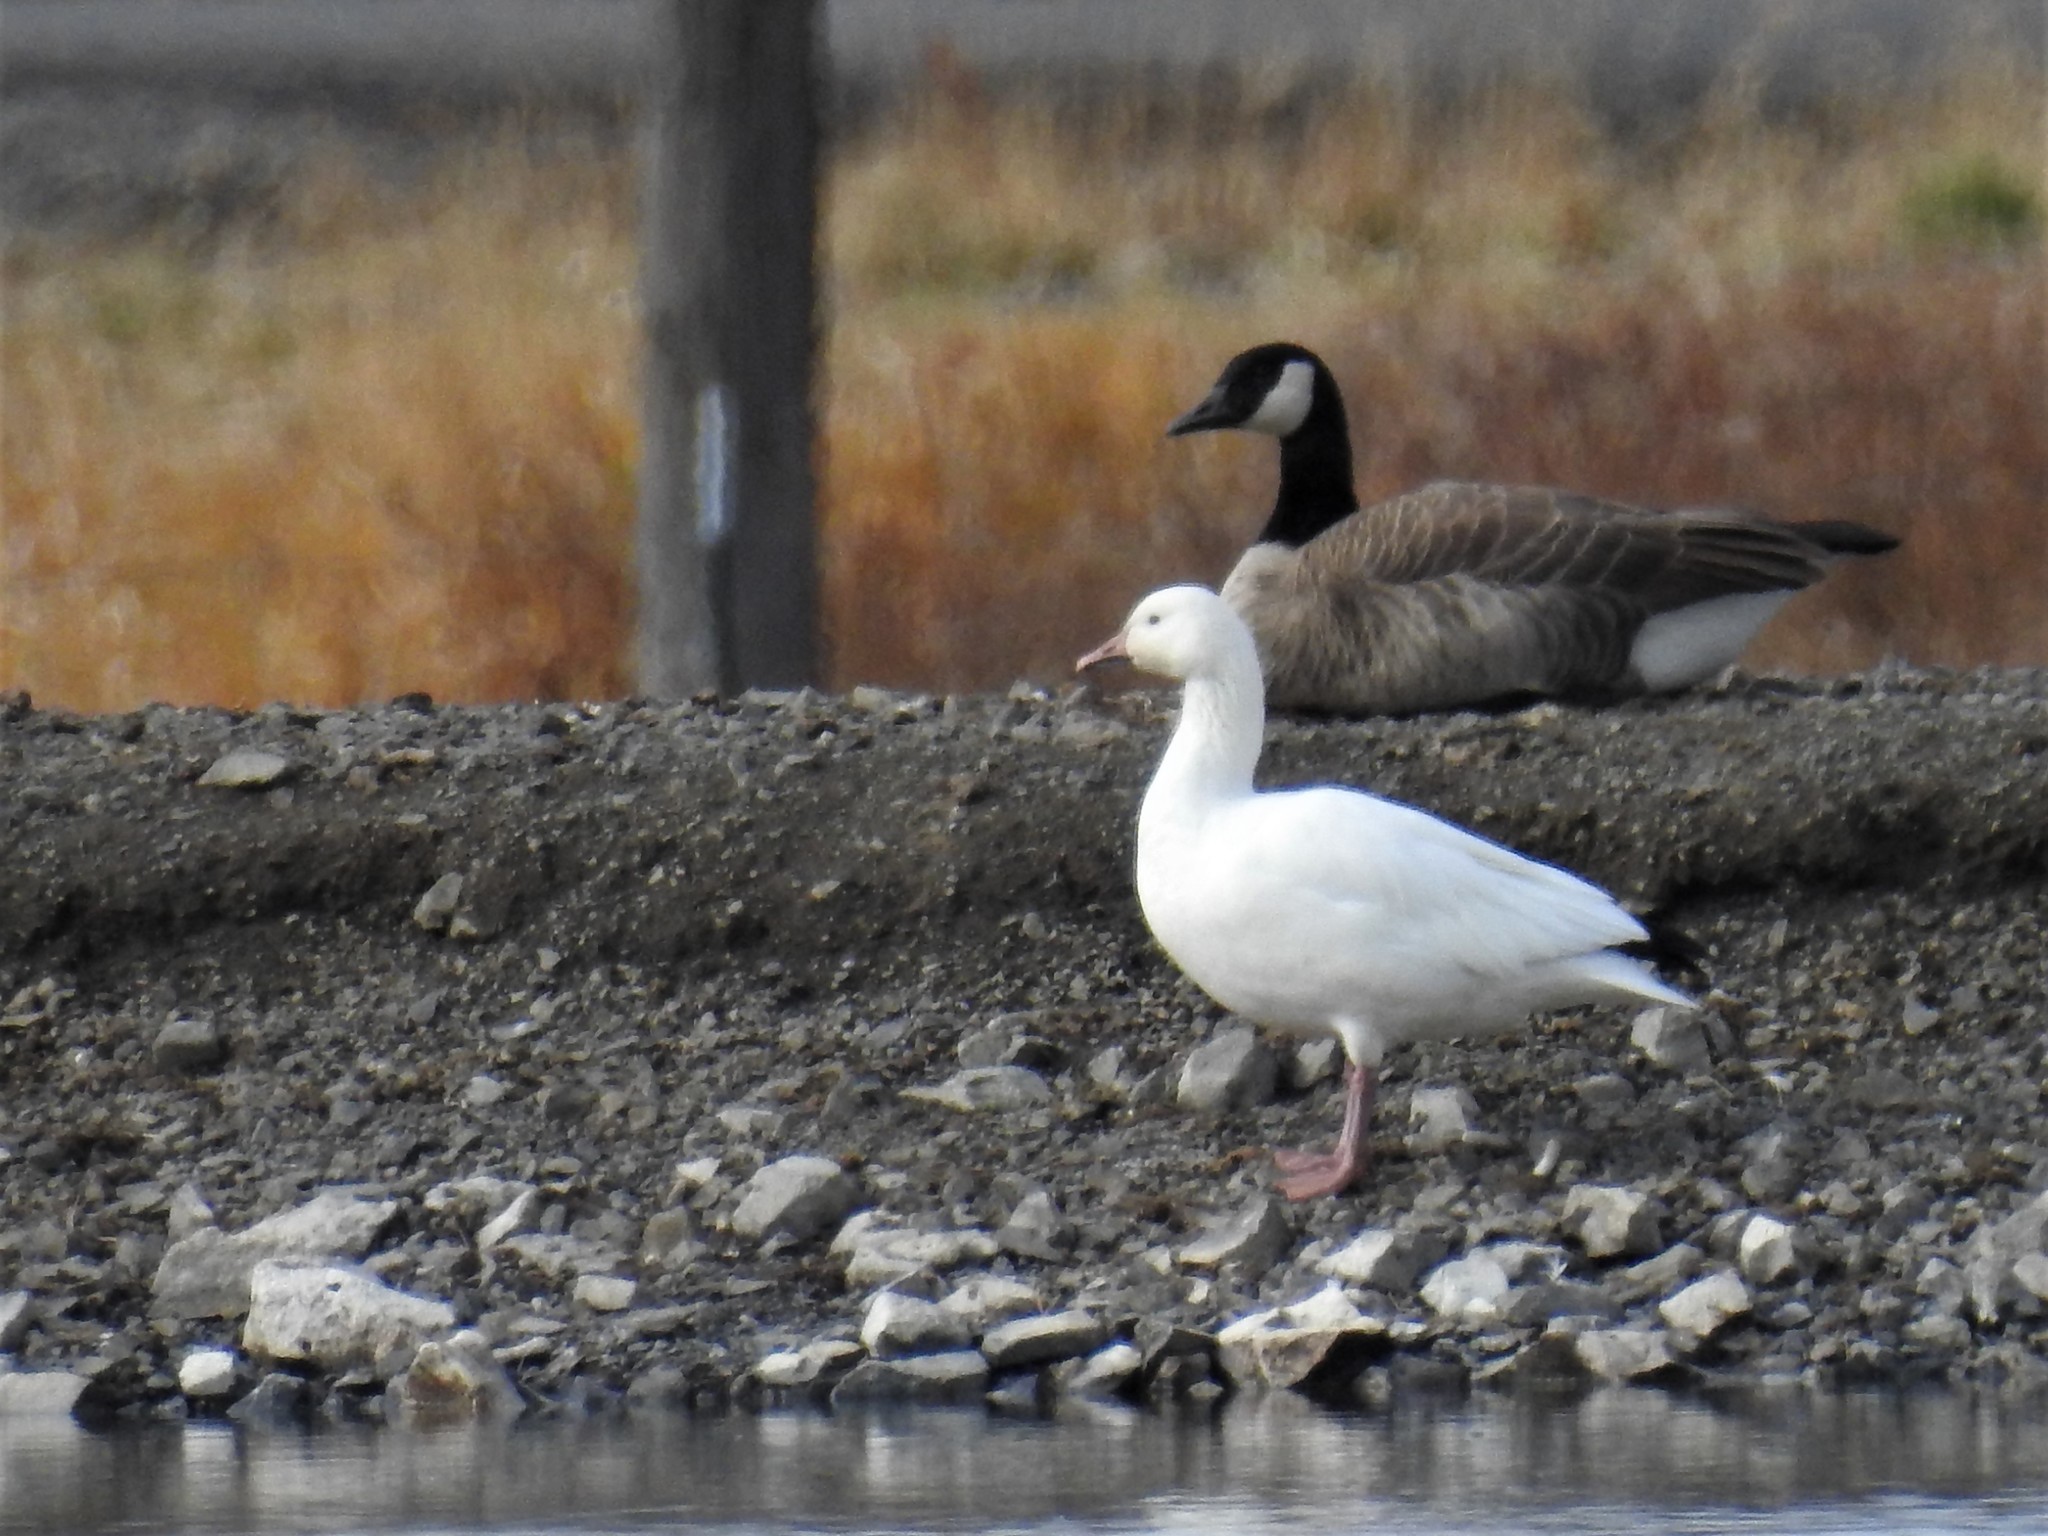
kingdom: Animalia
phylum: Chordata
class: Aves
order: Anseriformes
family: Anatidae
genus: Anser
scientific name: Anser caerulescens
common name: Snow goose
